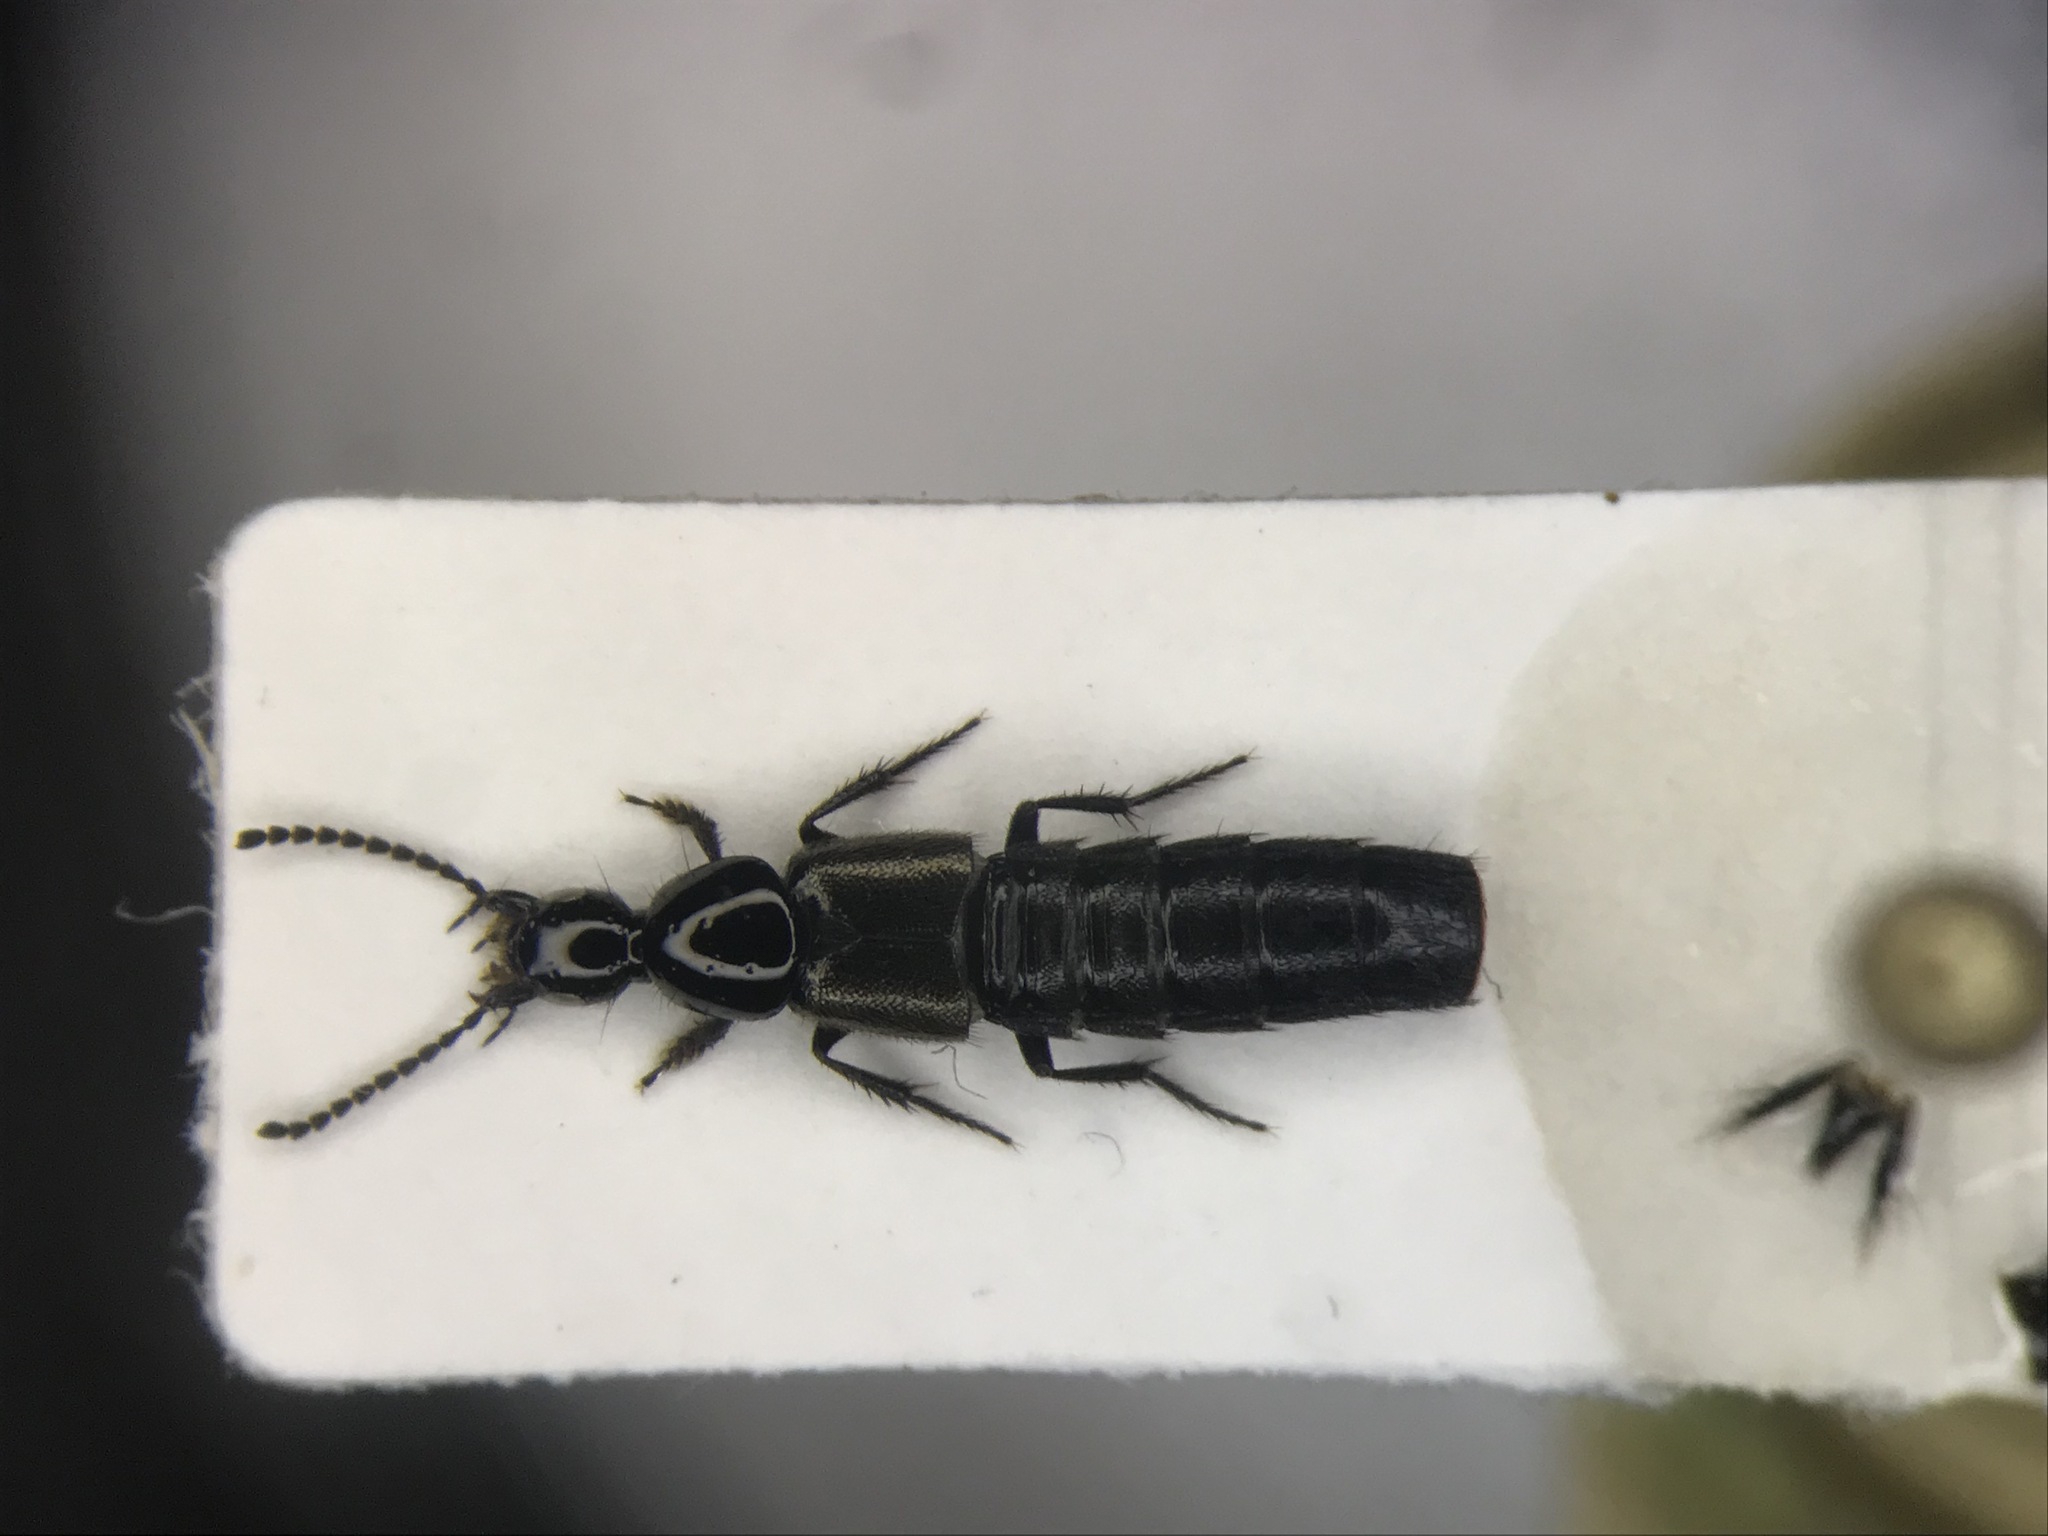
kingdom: Animalia
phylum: Arthropoda
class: Insecta
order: Coleoptera
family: Staphylinidae
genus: Philonthus
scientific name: Philonthus carbonarius
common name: Staph beetle
